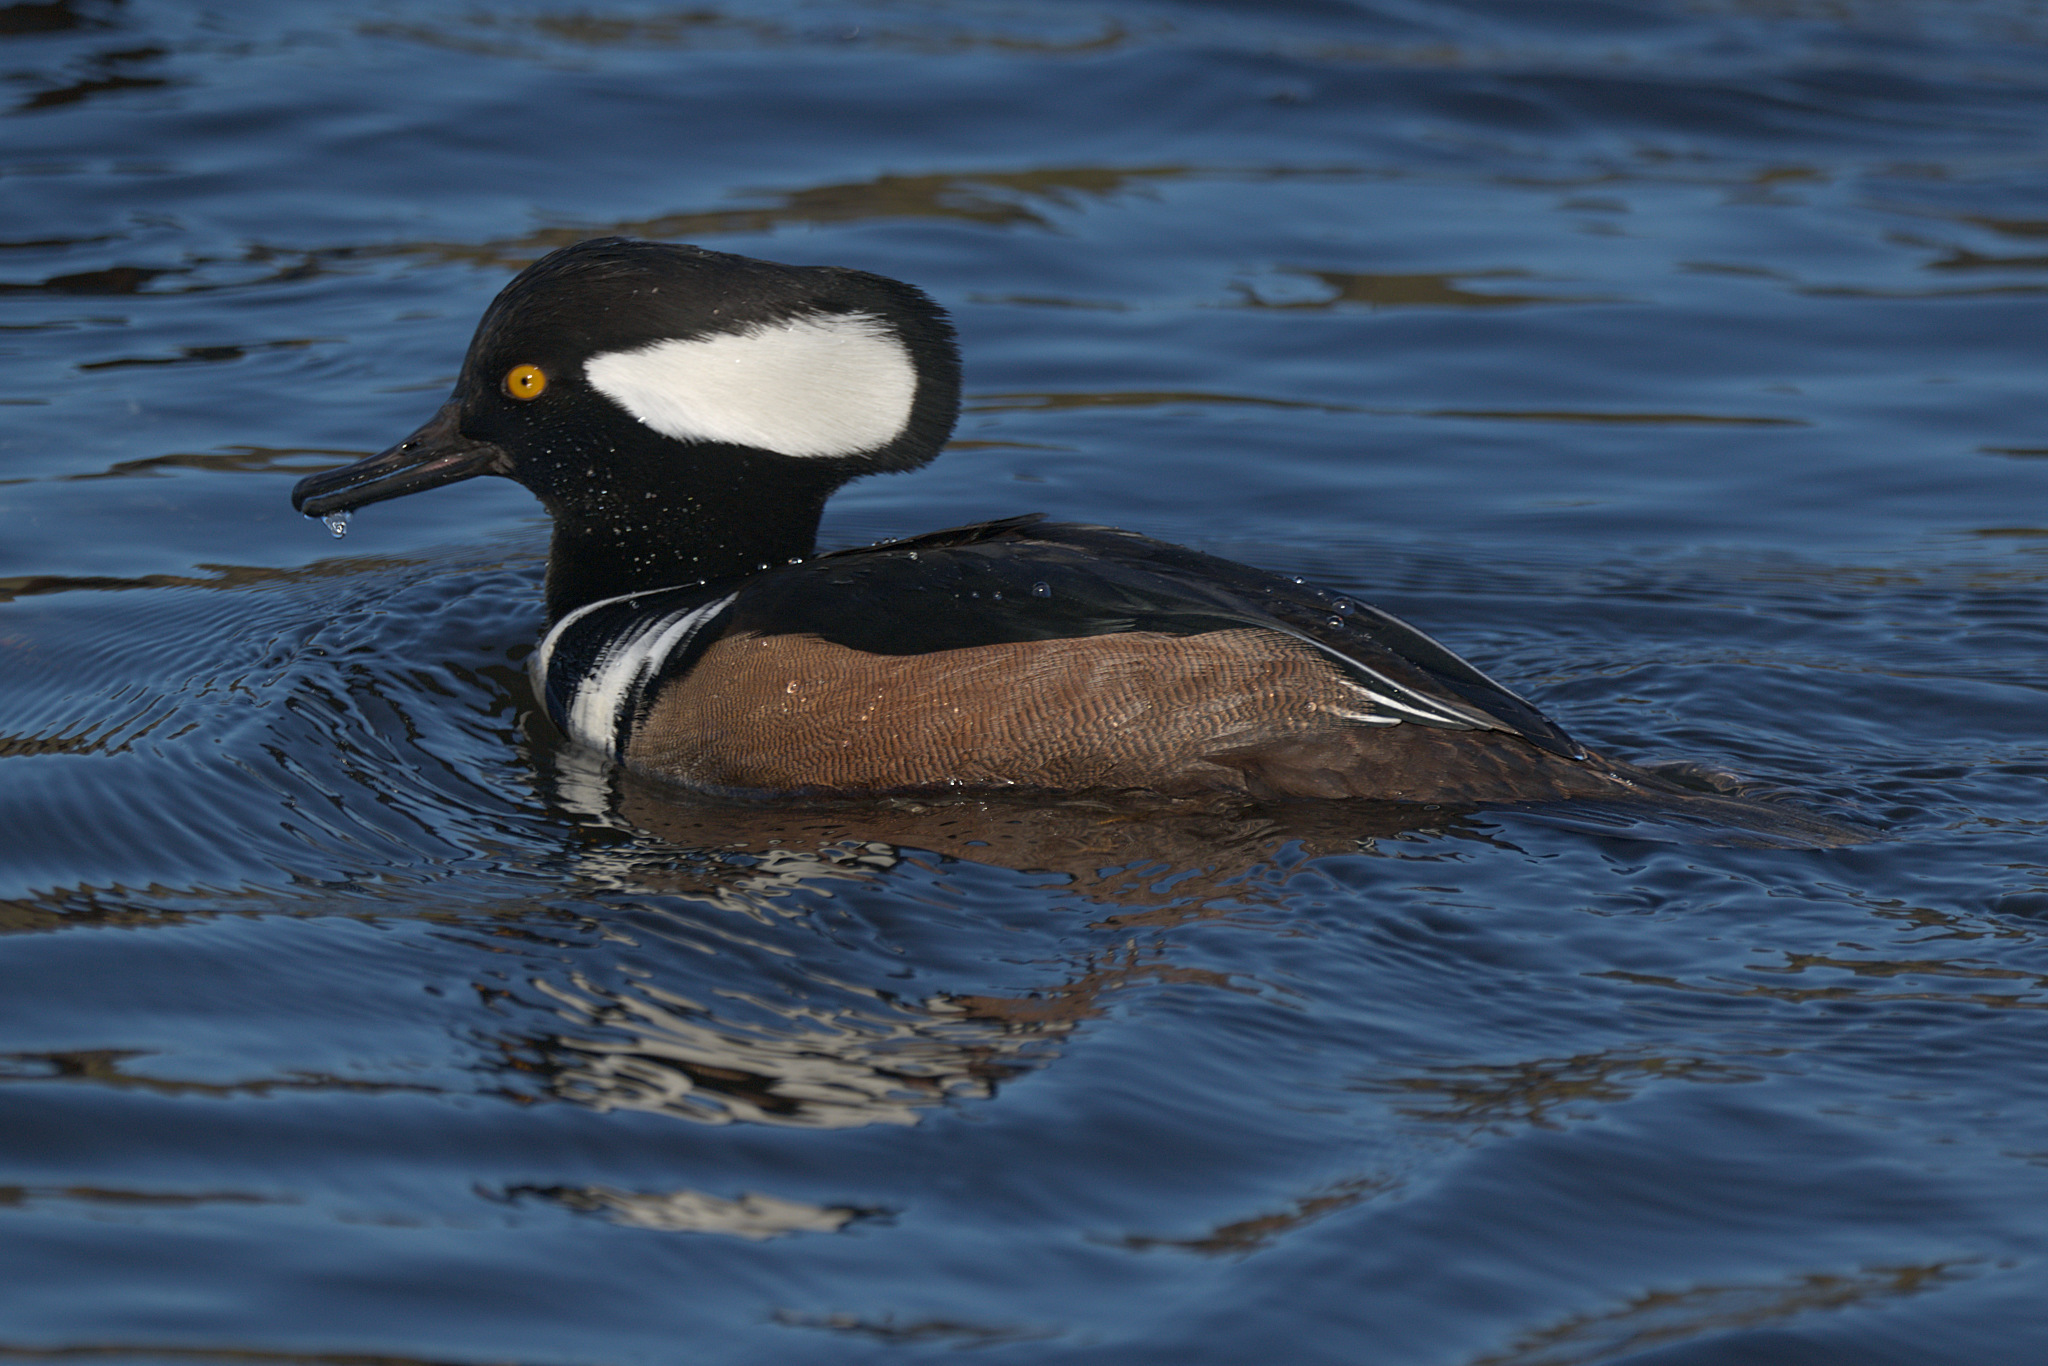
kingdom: Animalia
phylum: Chordata
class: Aves
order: Anseriformes
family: Anatidae
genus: Lophodytes
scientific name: Lophodytes cucullatus
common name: Hooded merganser
